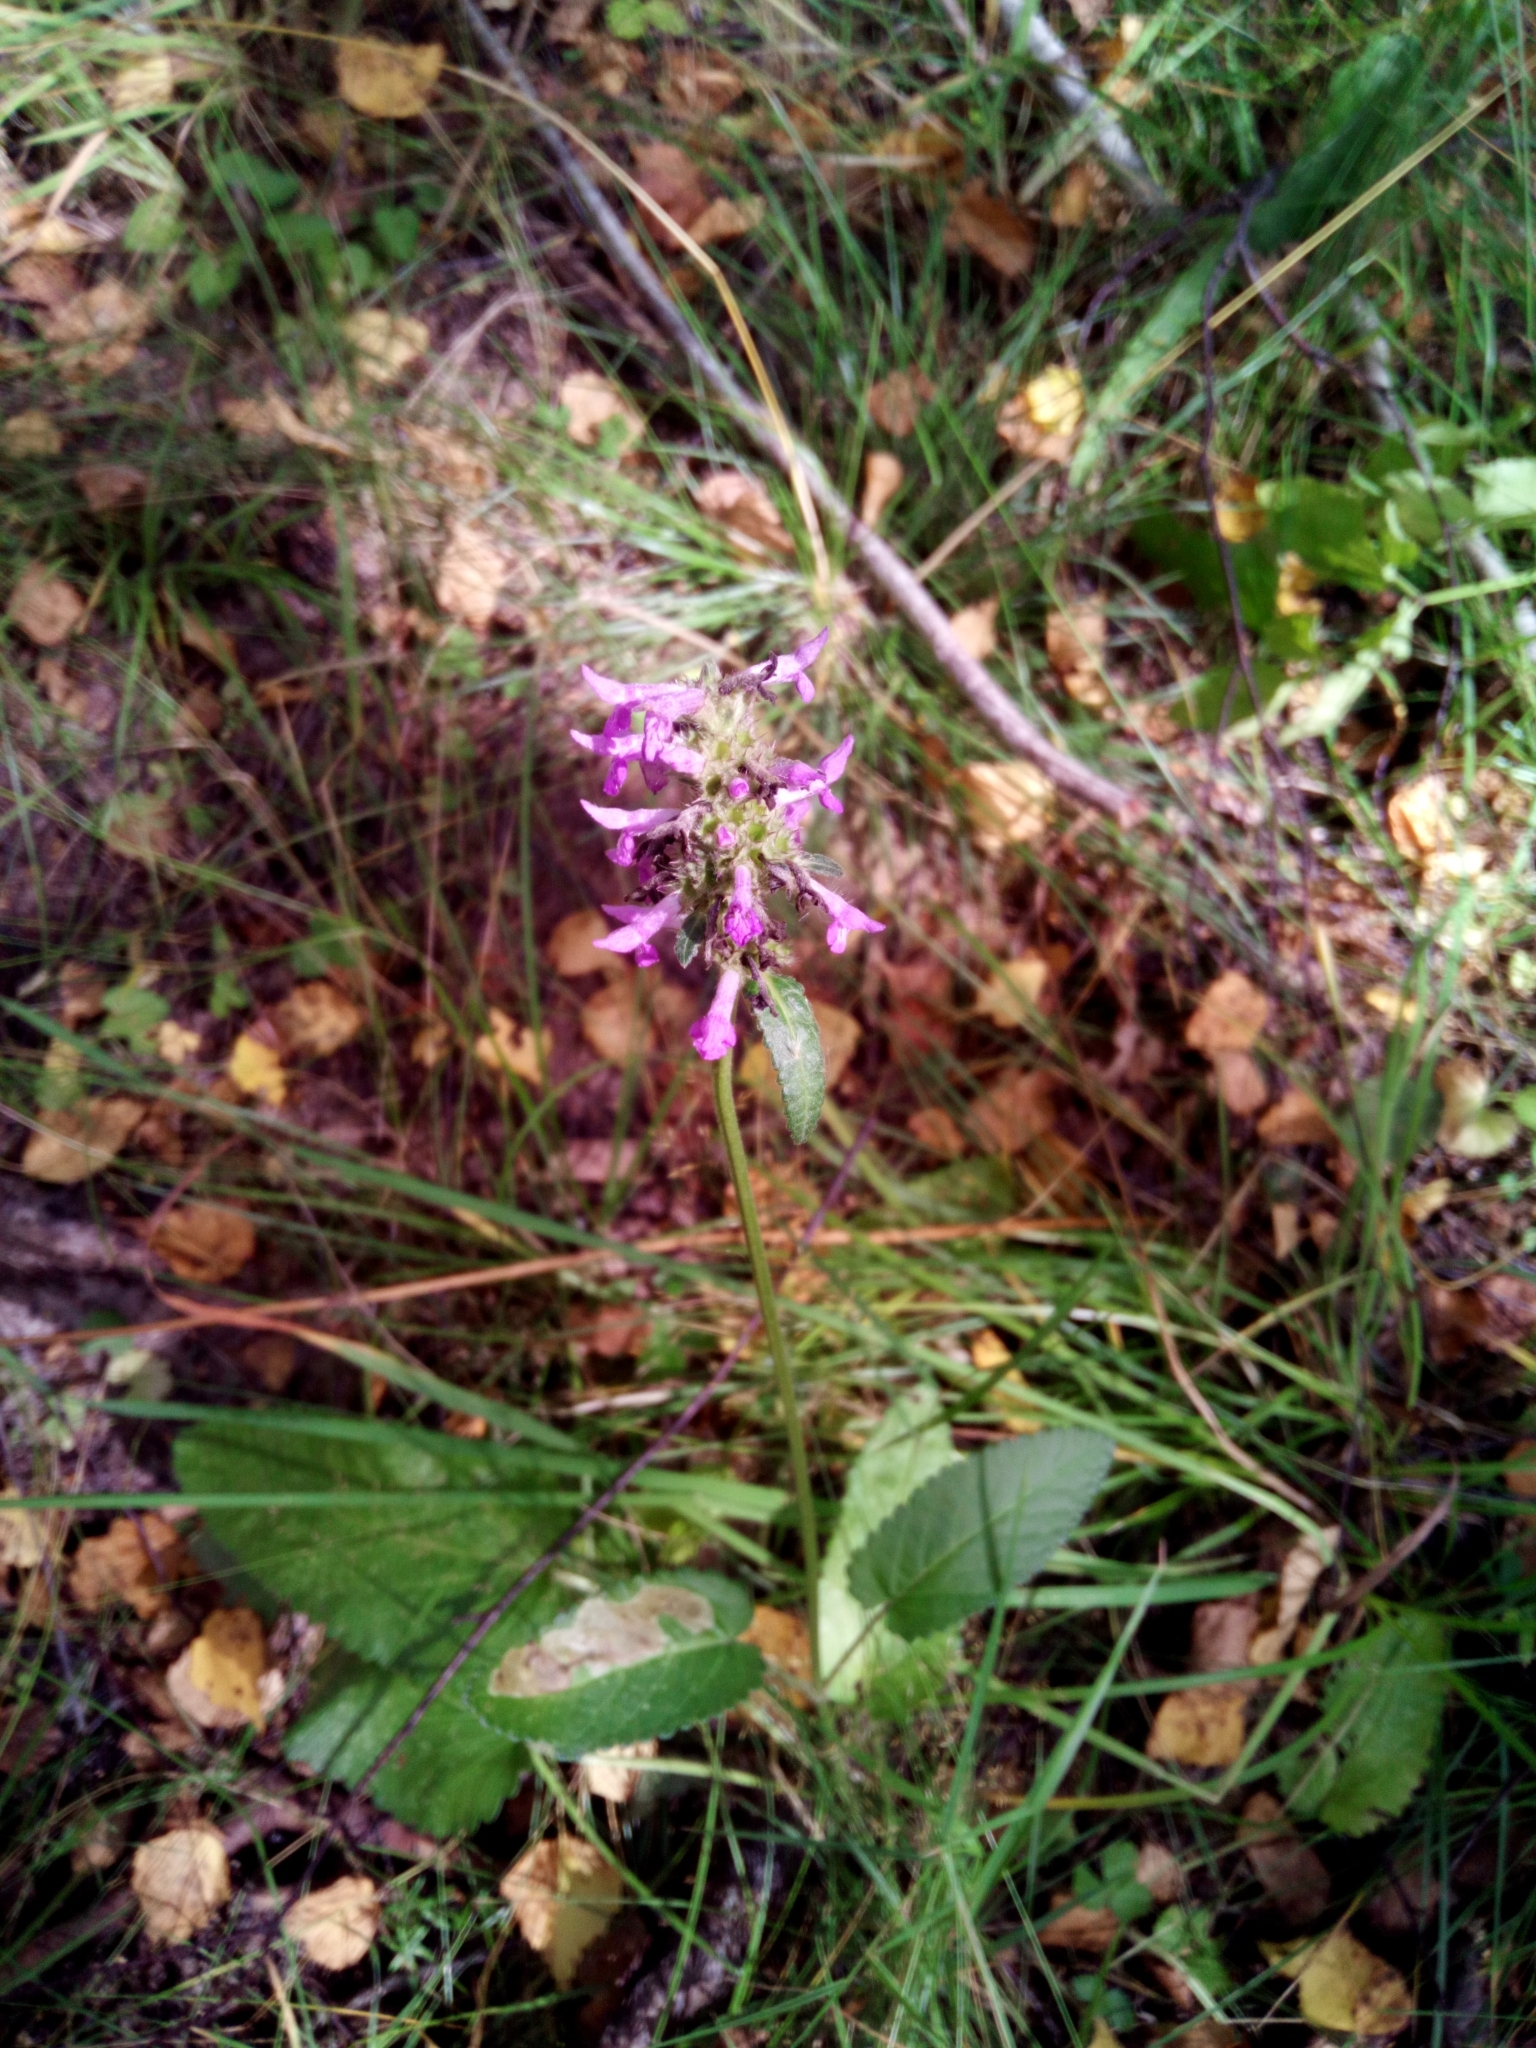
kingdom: Plantae
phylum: Tracheophyta
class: Magnoliopsida
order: Lamiales
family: Lamiaceae
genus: Betonica
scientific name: Betonica officinalis
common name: Bishop's-wort
